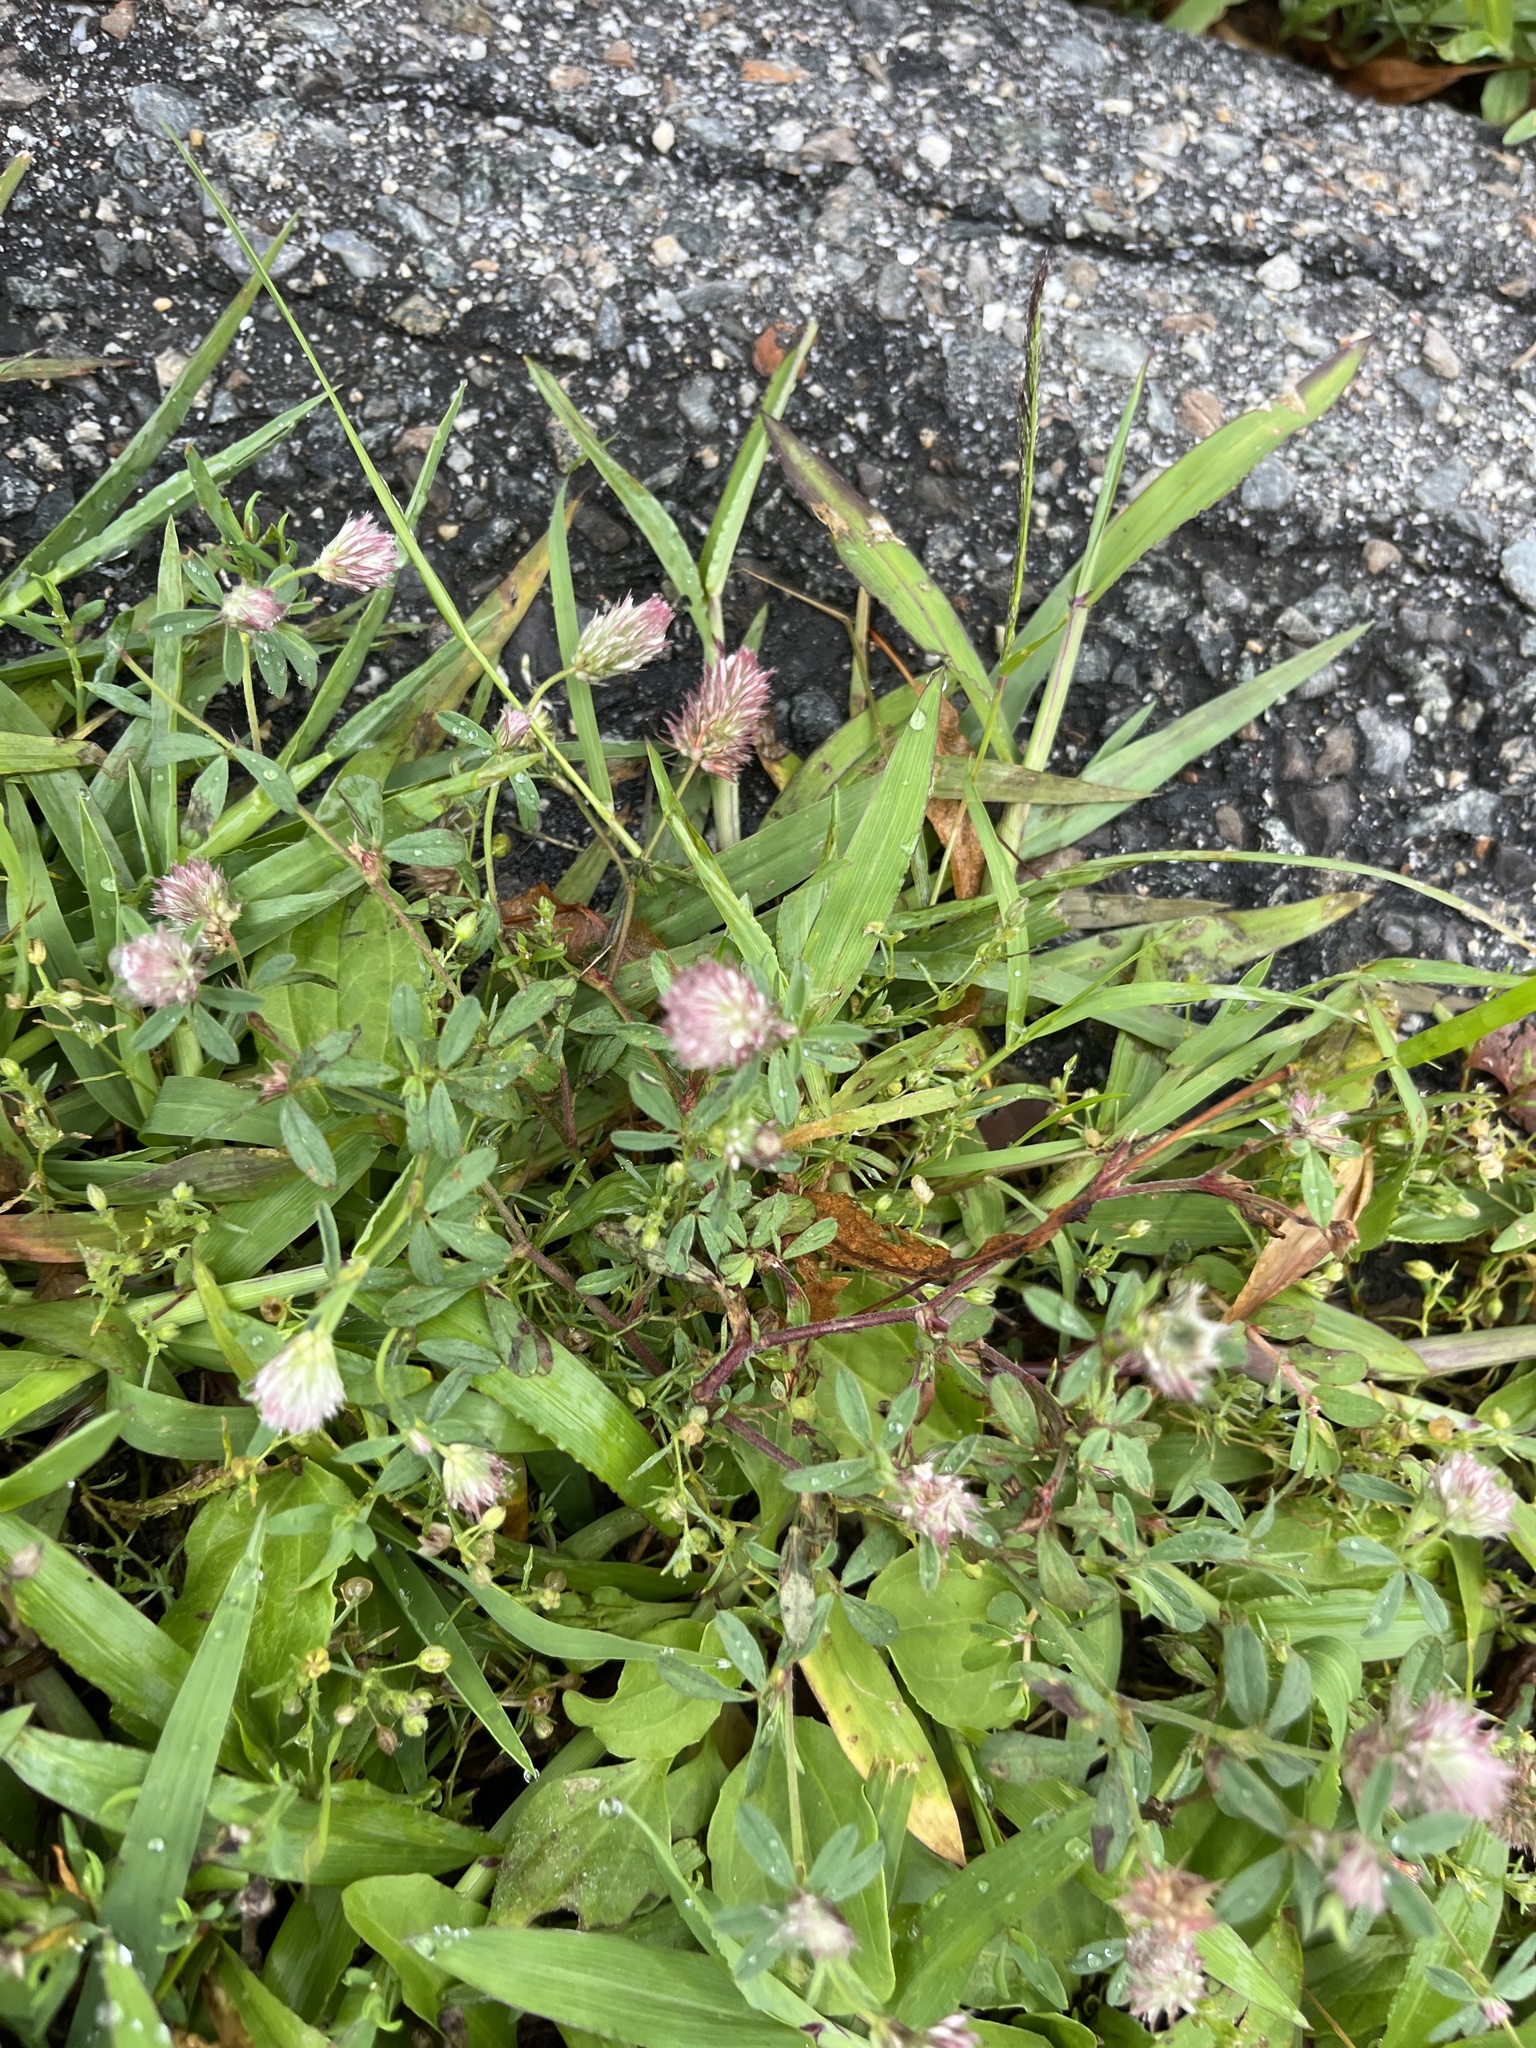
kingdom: Plantae
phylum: Tracheophyta
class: Magnoliopsida
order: Fabales
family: Fabaceae
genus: Trifolium
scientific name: Trifolium arvense
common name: Hare's-foot clover
